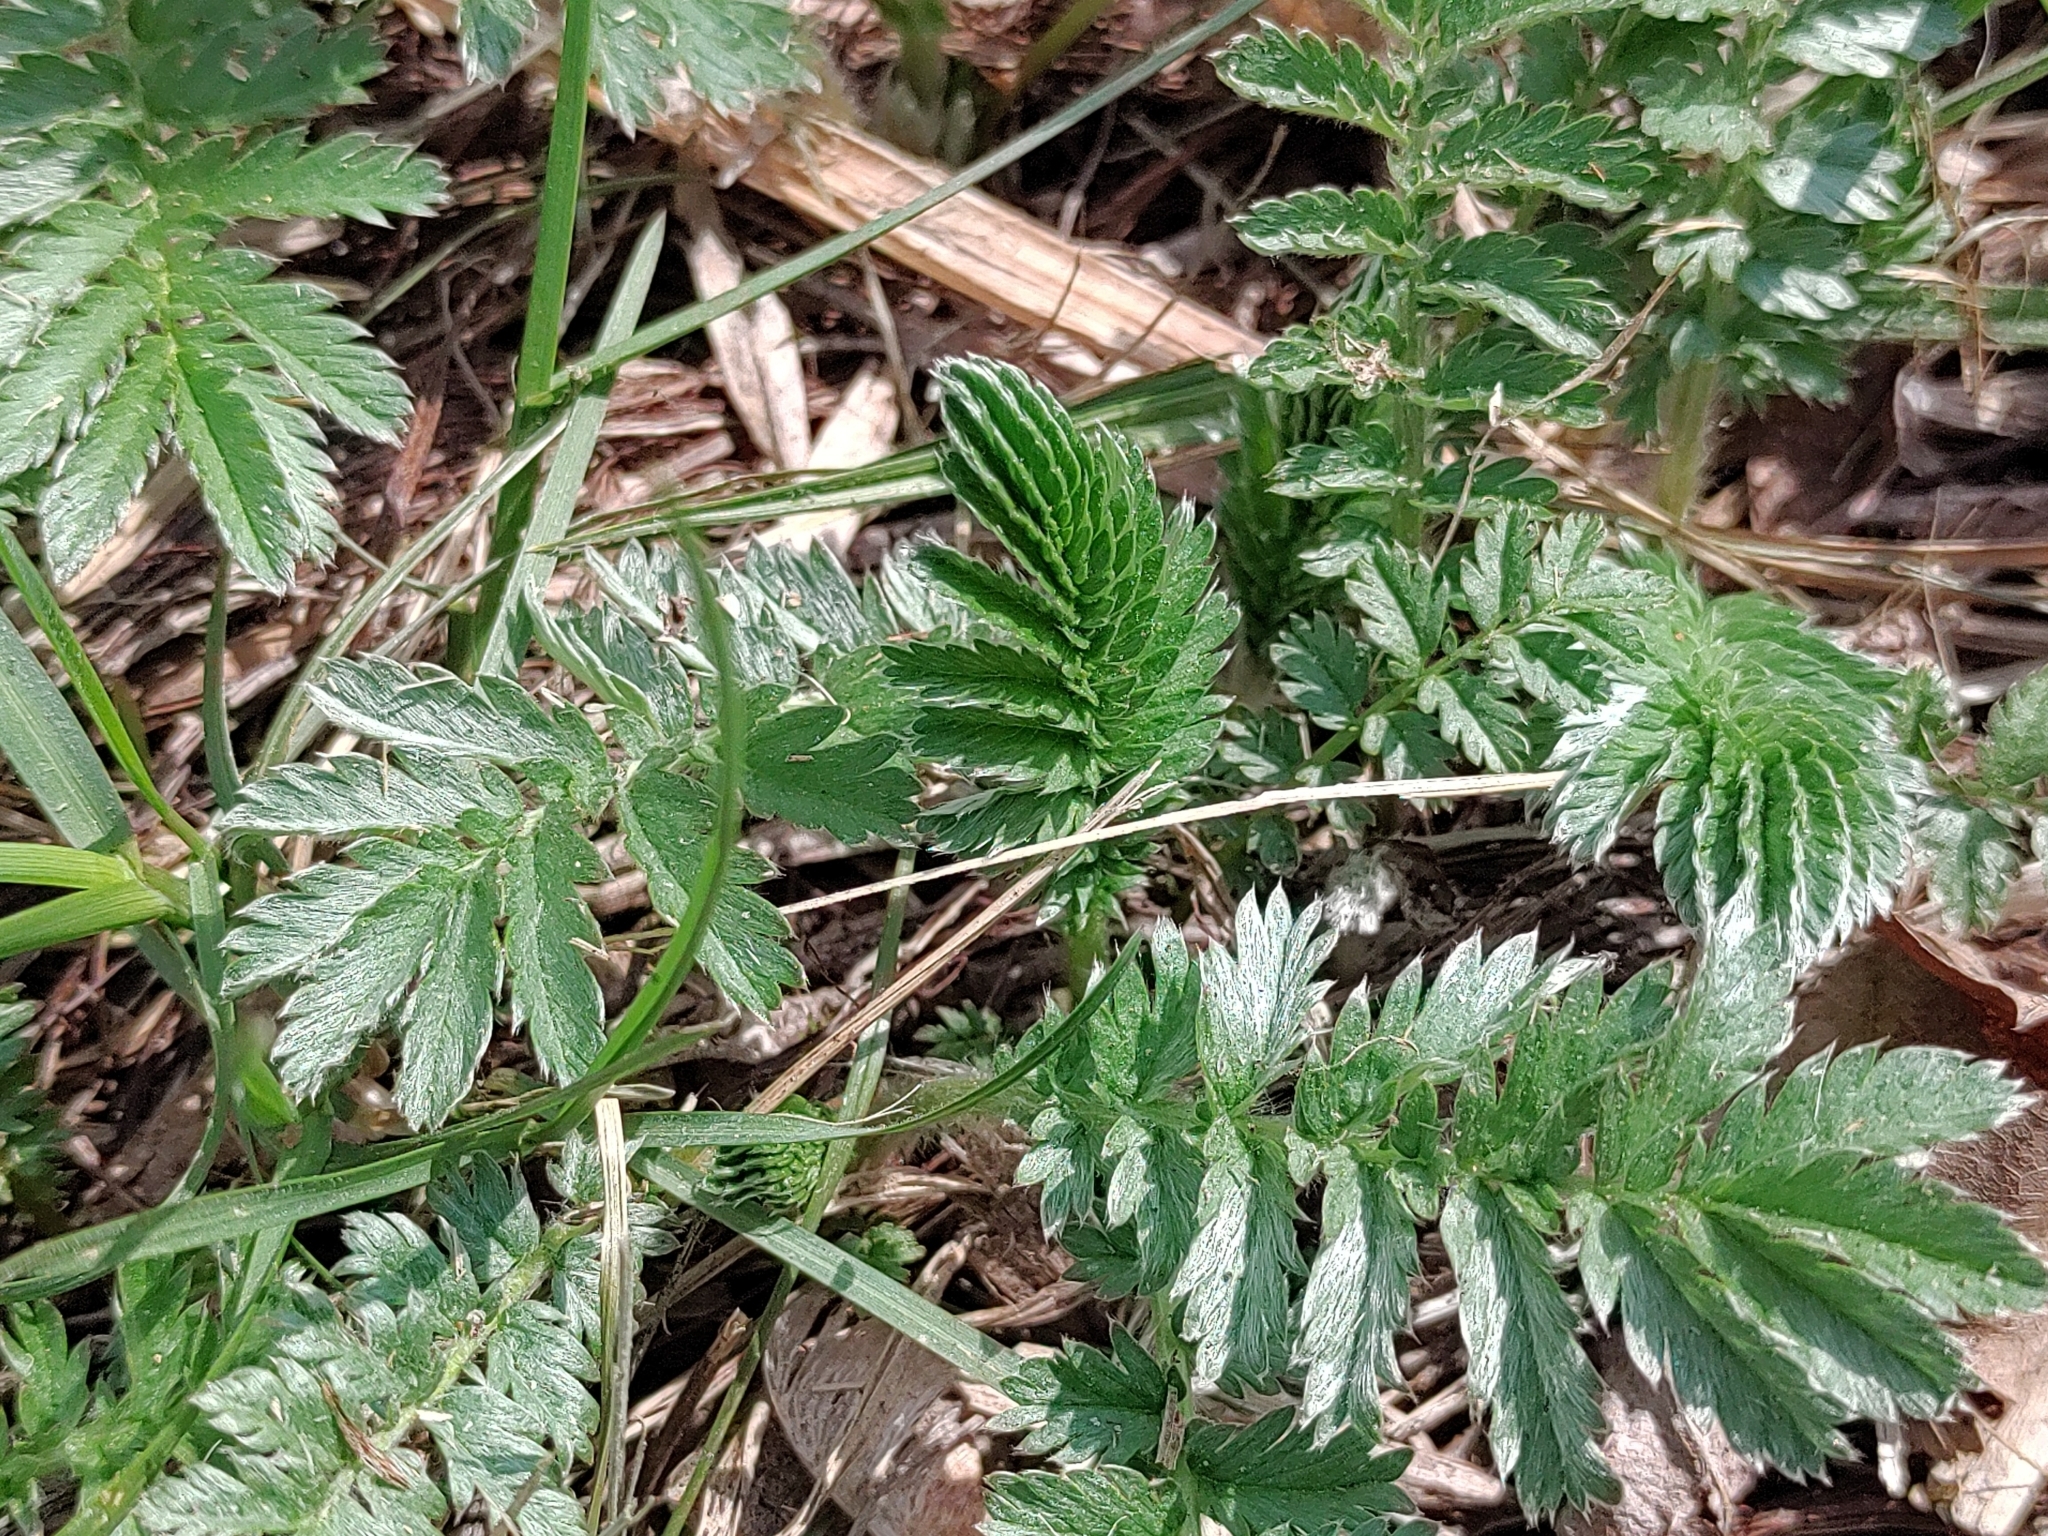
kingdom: Plantae
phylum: Tracheophyta
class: Magnoliopsida
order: Rosales
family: Rosaceae
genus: Argentina
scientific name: Argentina anserina
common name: Common silverweed
